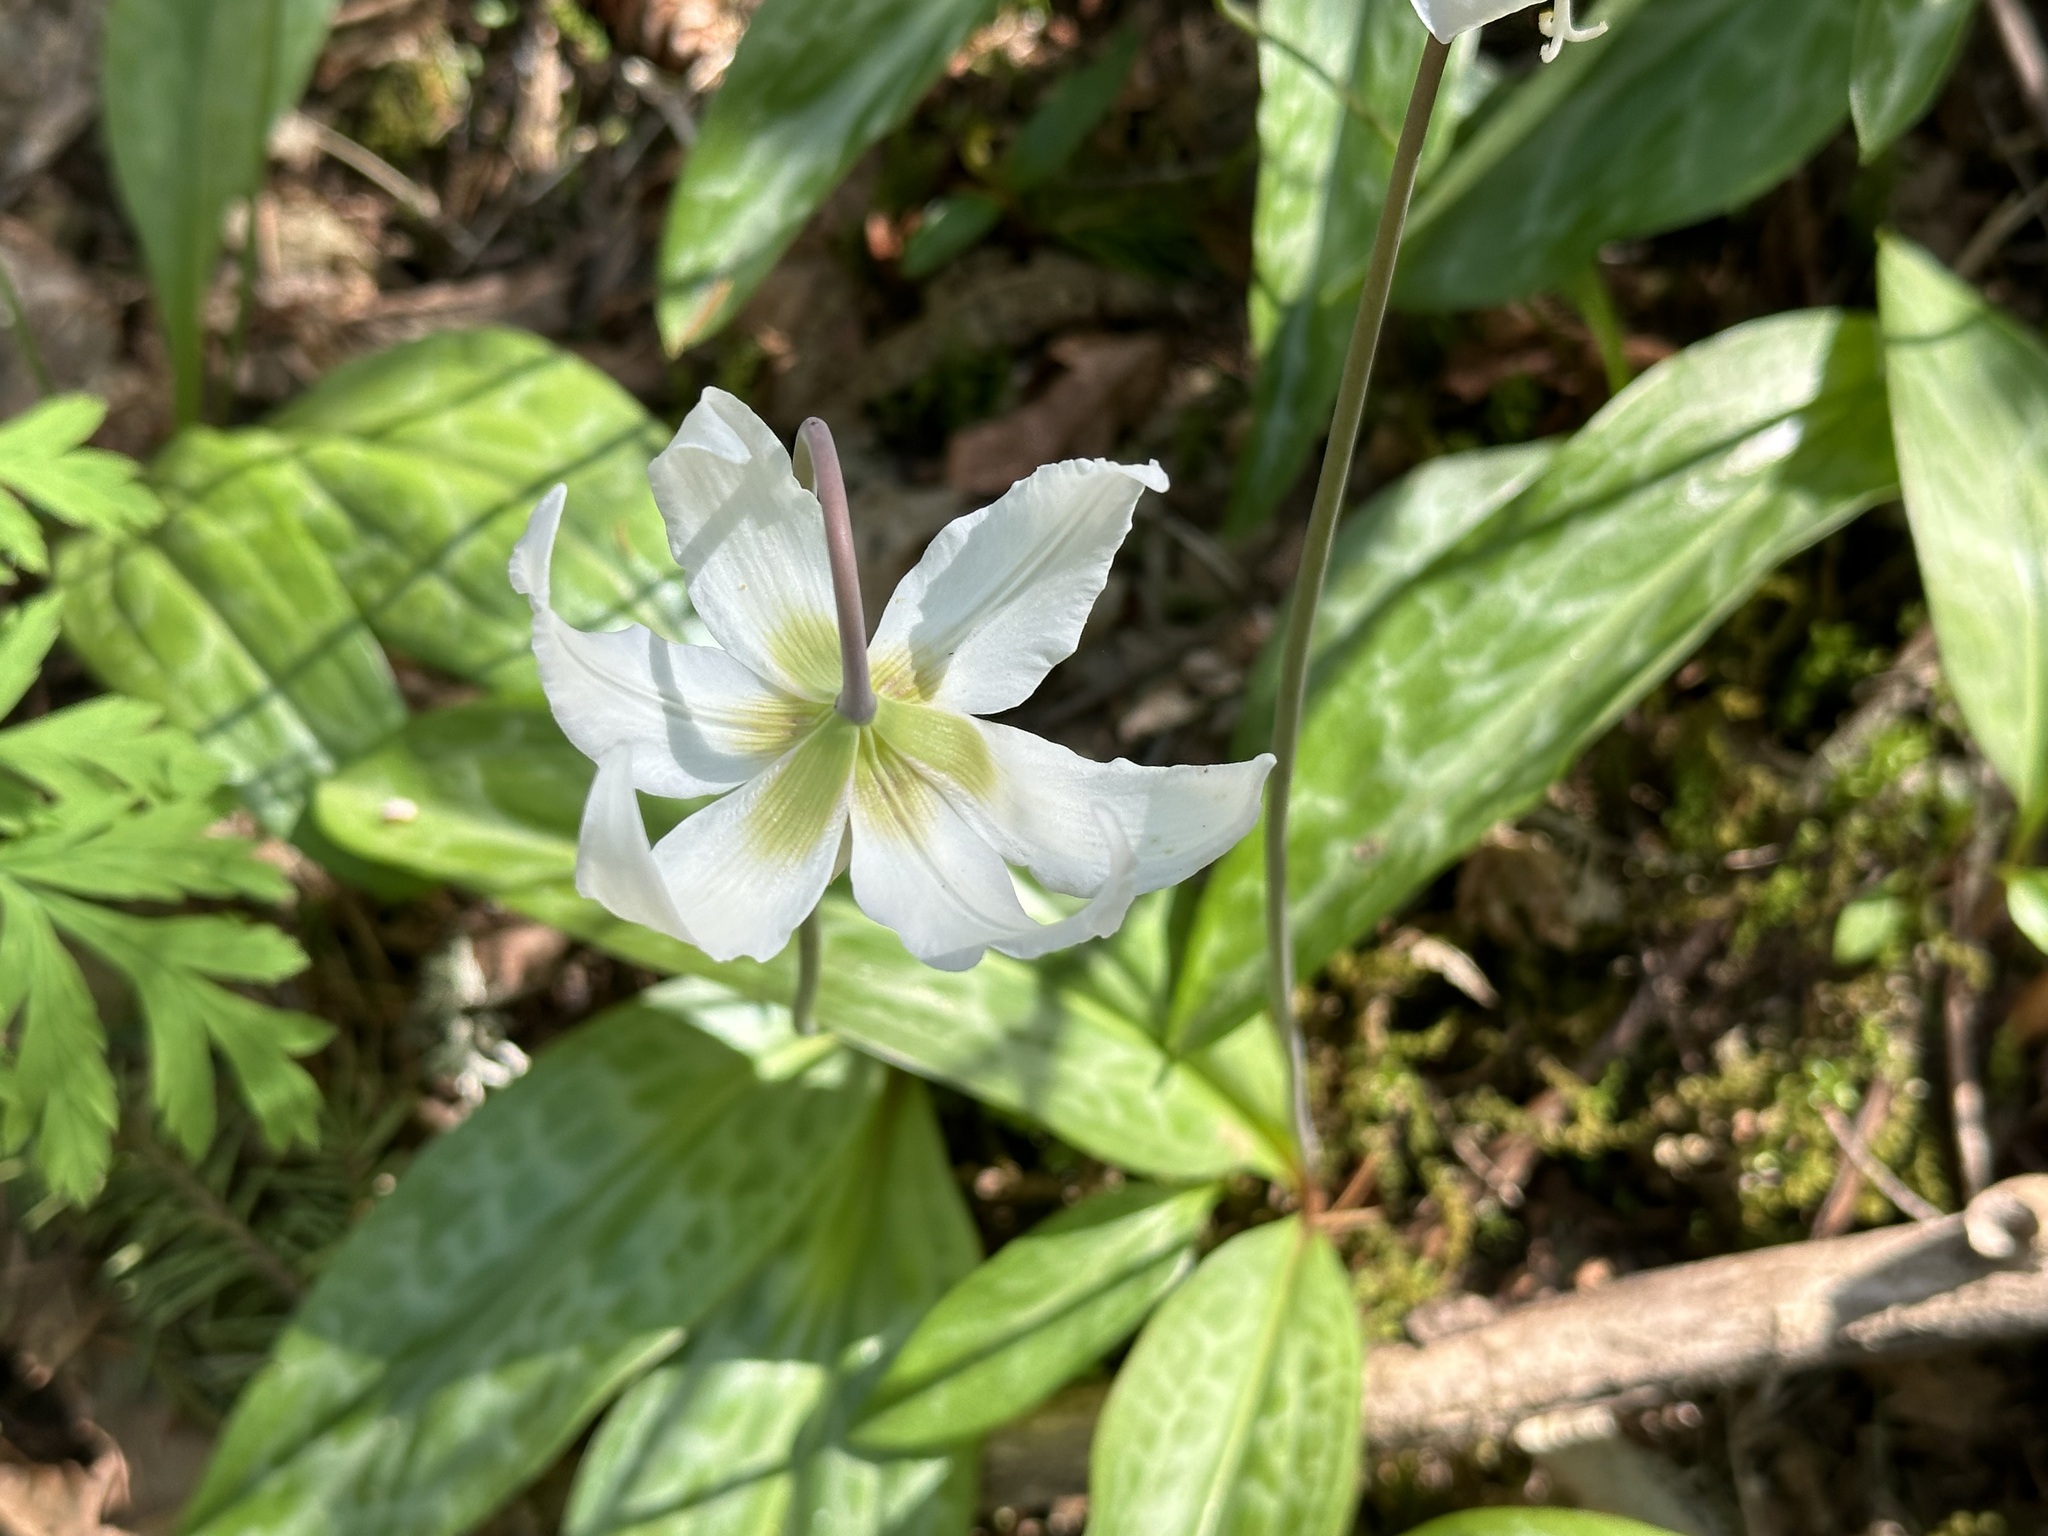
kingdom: Plantae
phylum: Tracheophyta
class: Liliopsida
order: Liliales
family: Liliaceae
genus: Erythronium
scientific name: Erythronium oregonum
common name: Giant adder's-tongue
